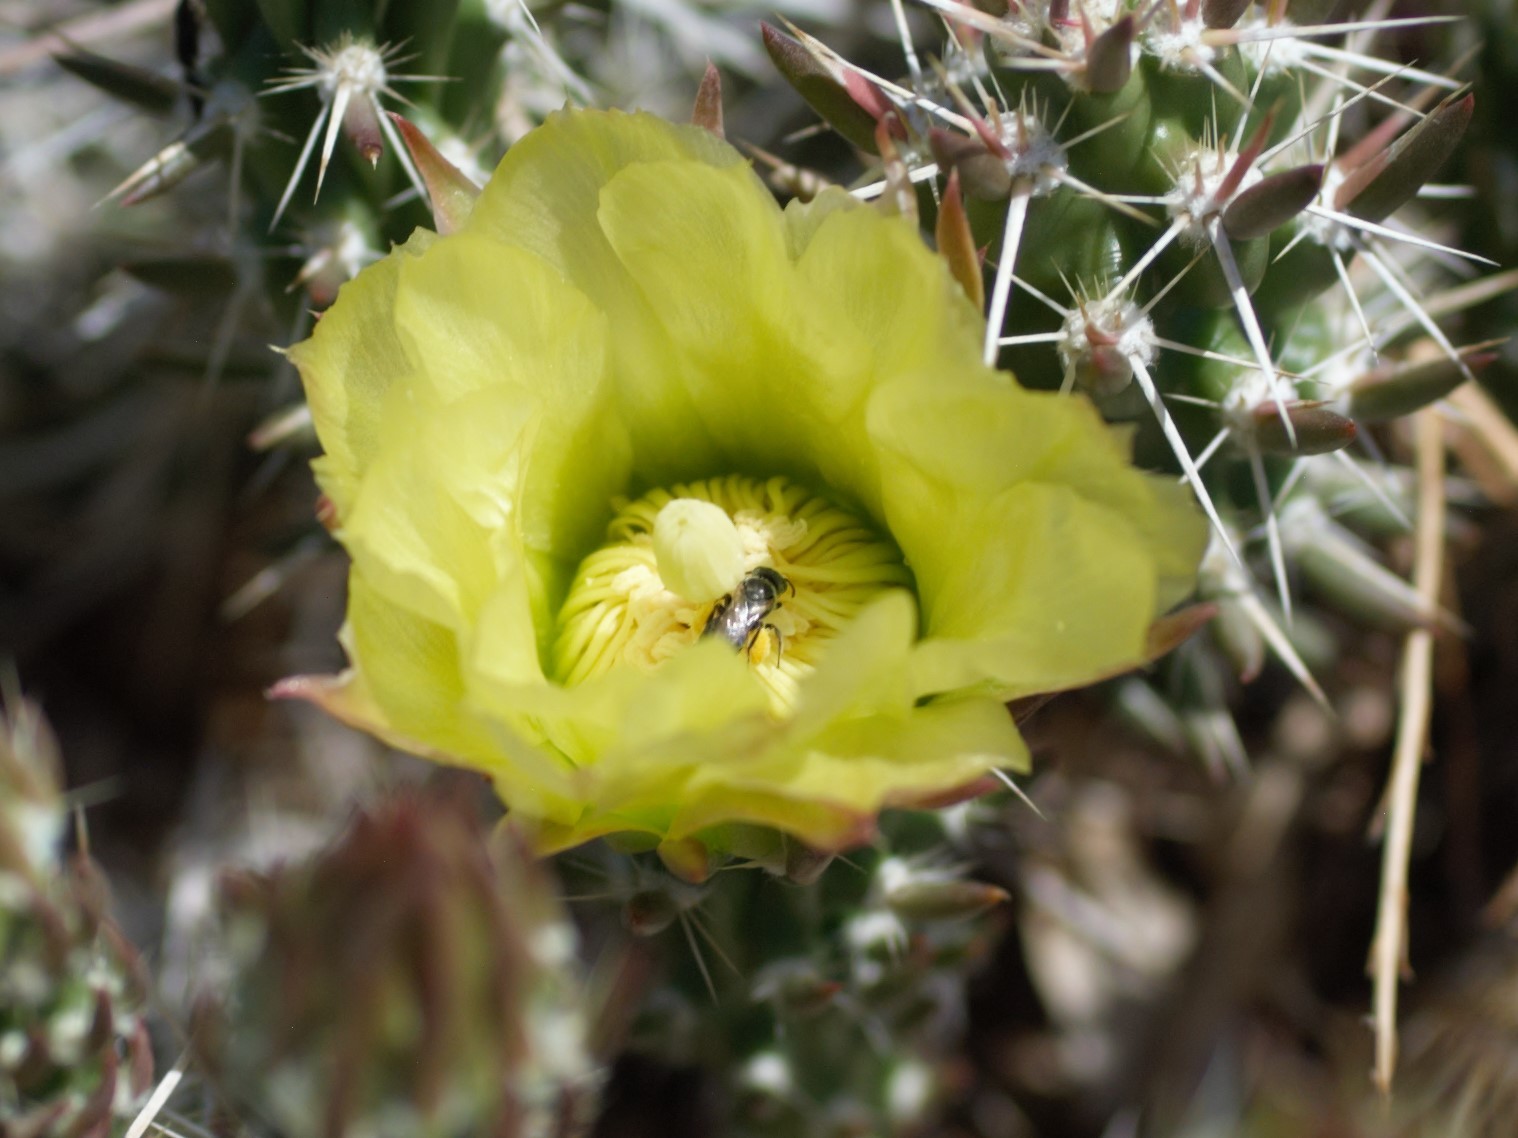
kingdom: Animalia
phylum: Arthropoda
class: Insecta
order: Hymenoptera
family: Andrenidae
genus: Macrotera
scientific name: Macrotera
